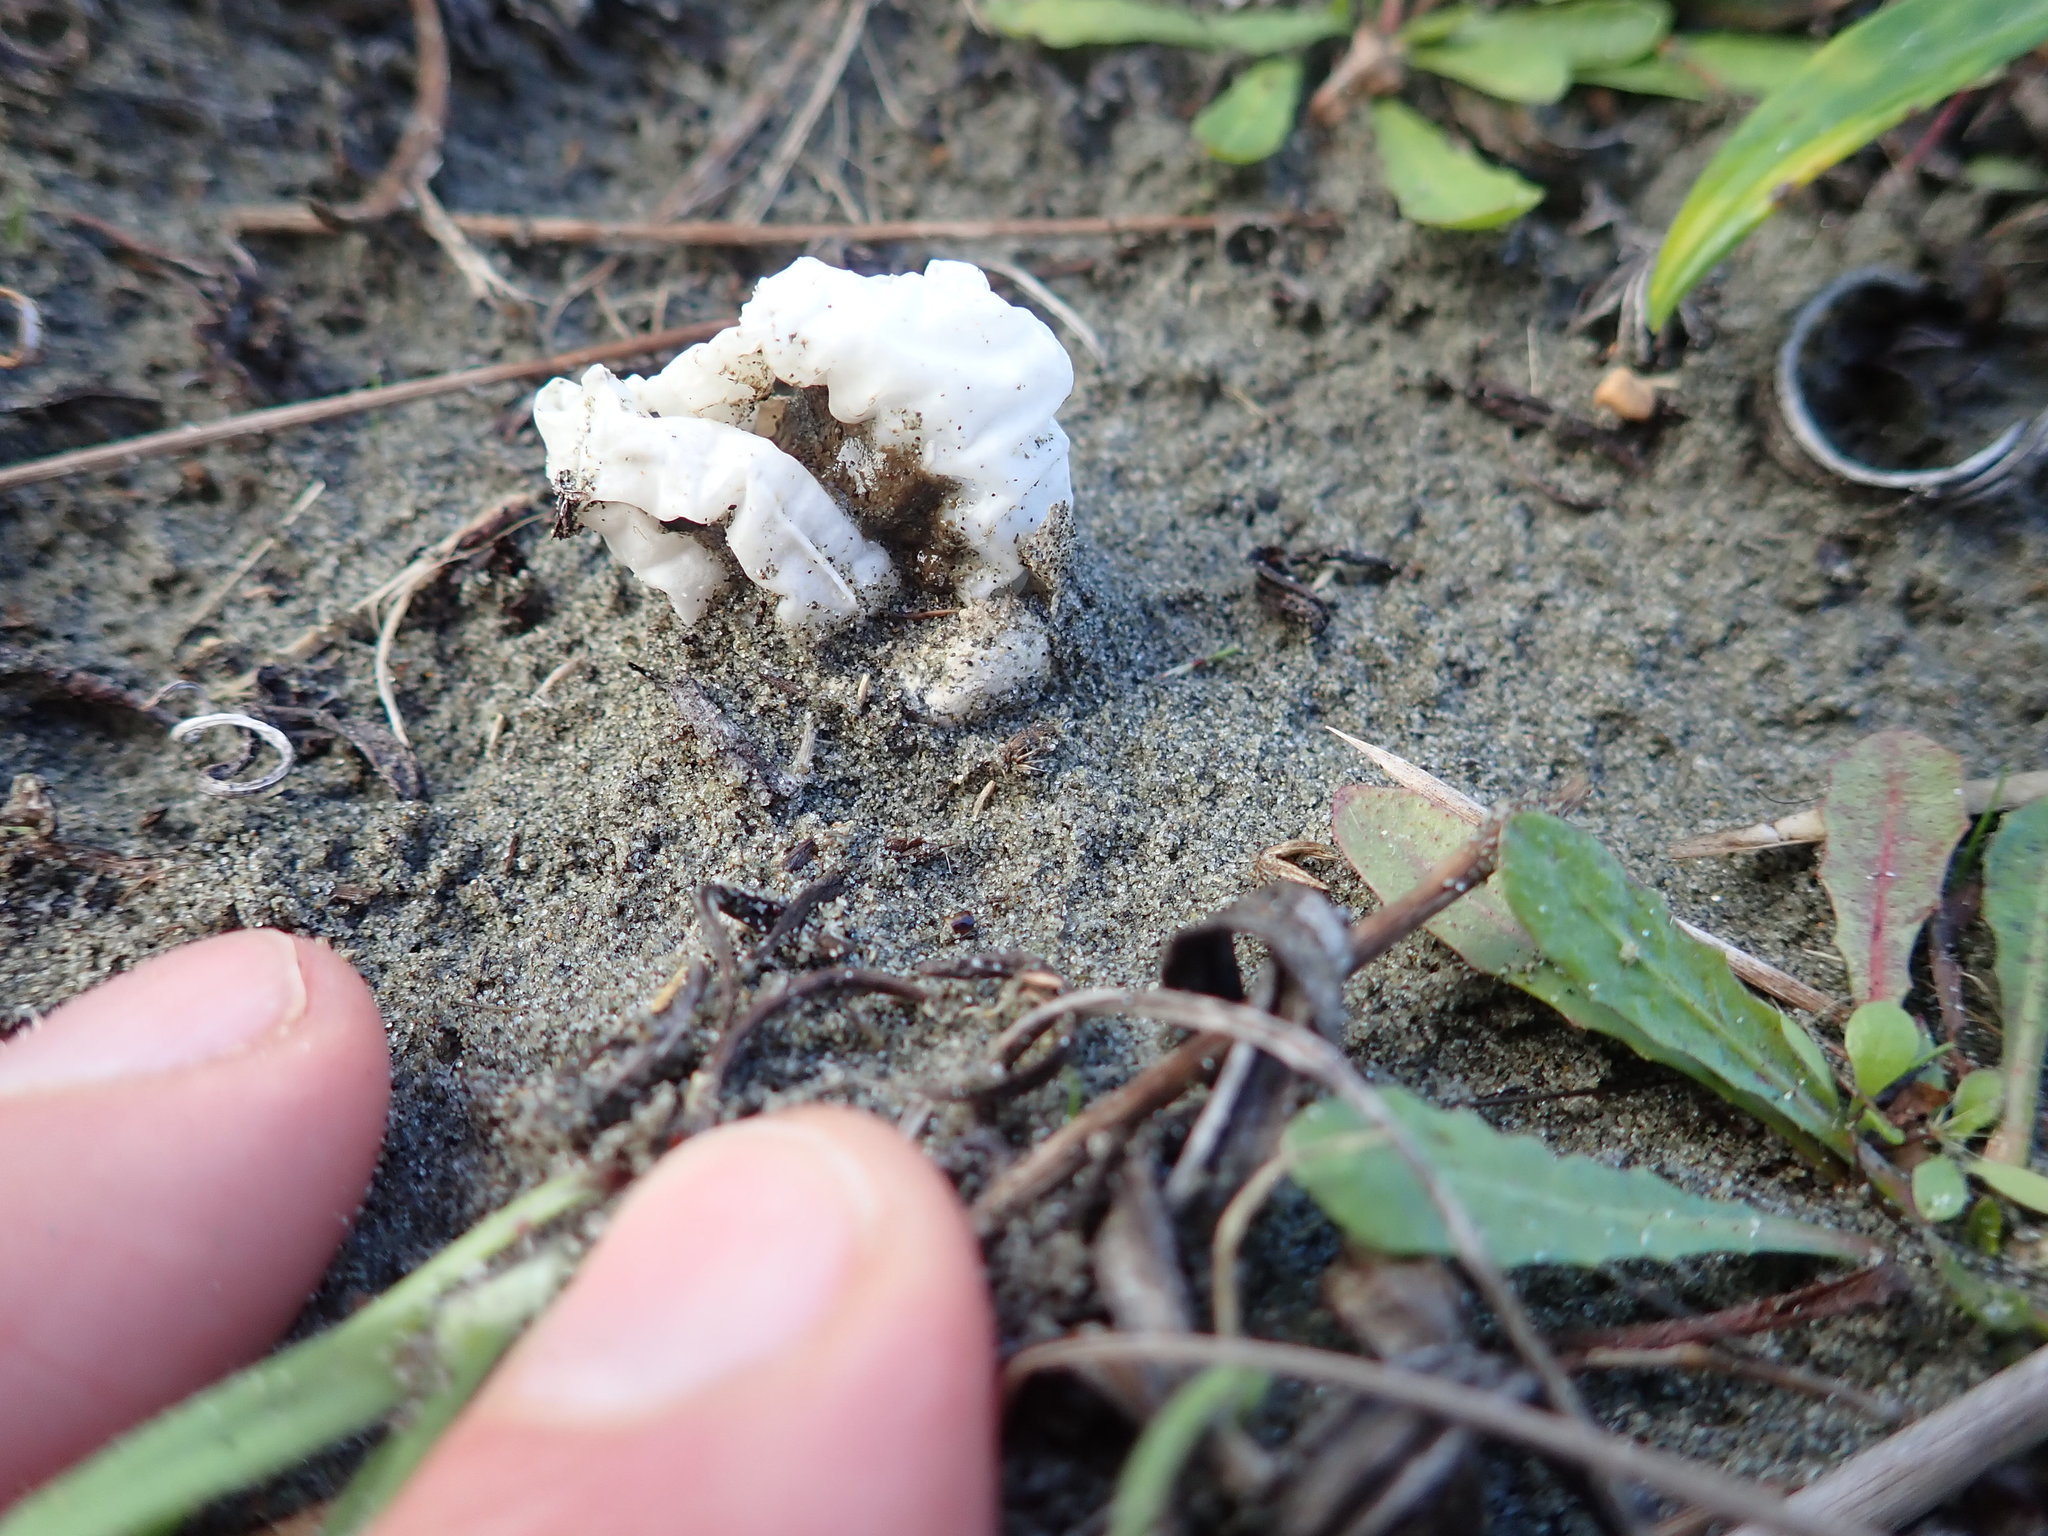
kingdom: Fungi
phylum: Basidiomycota
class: Agaricomycetes
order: Phallales
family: Phallaceae
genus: Ileodictyon
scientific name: Ileodictyon cibarium
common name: Basket fungus
